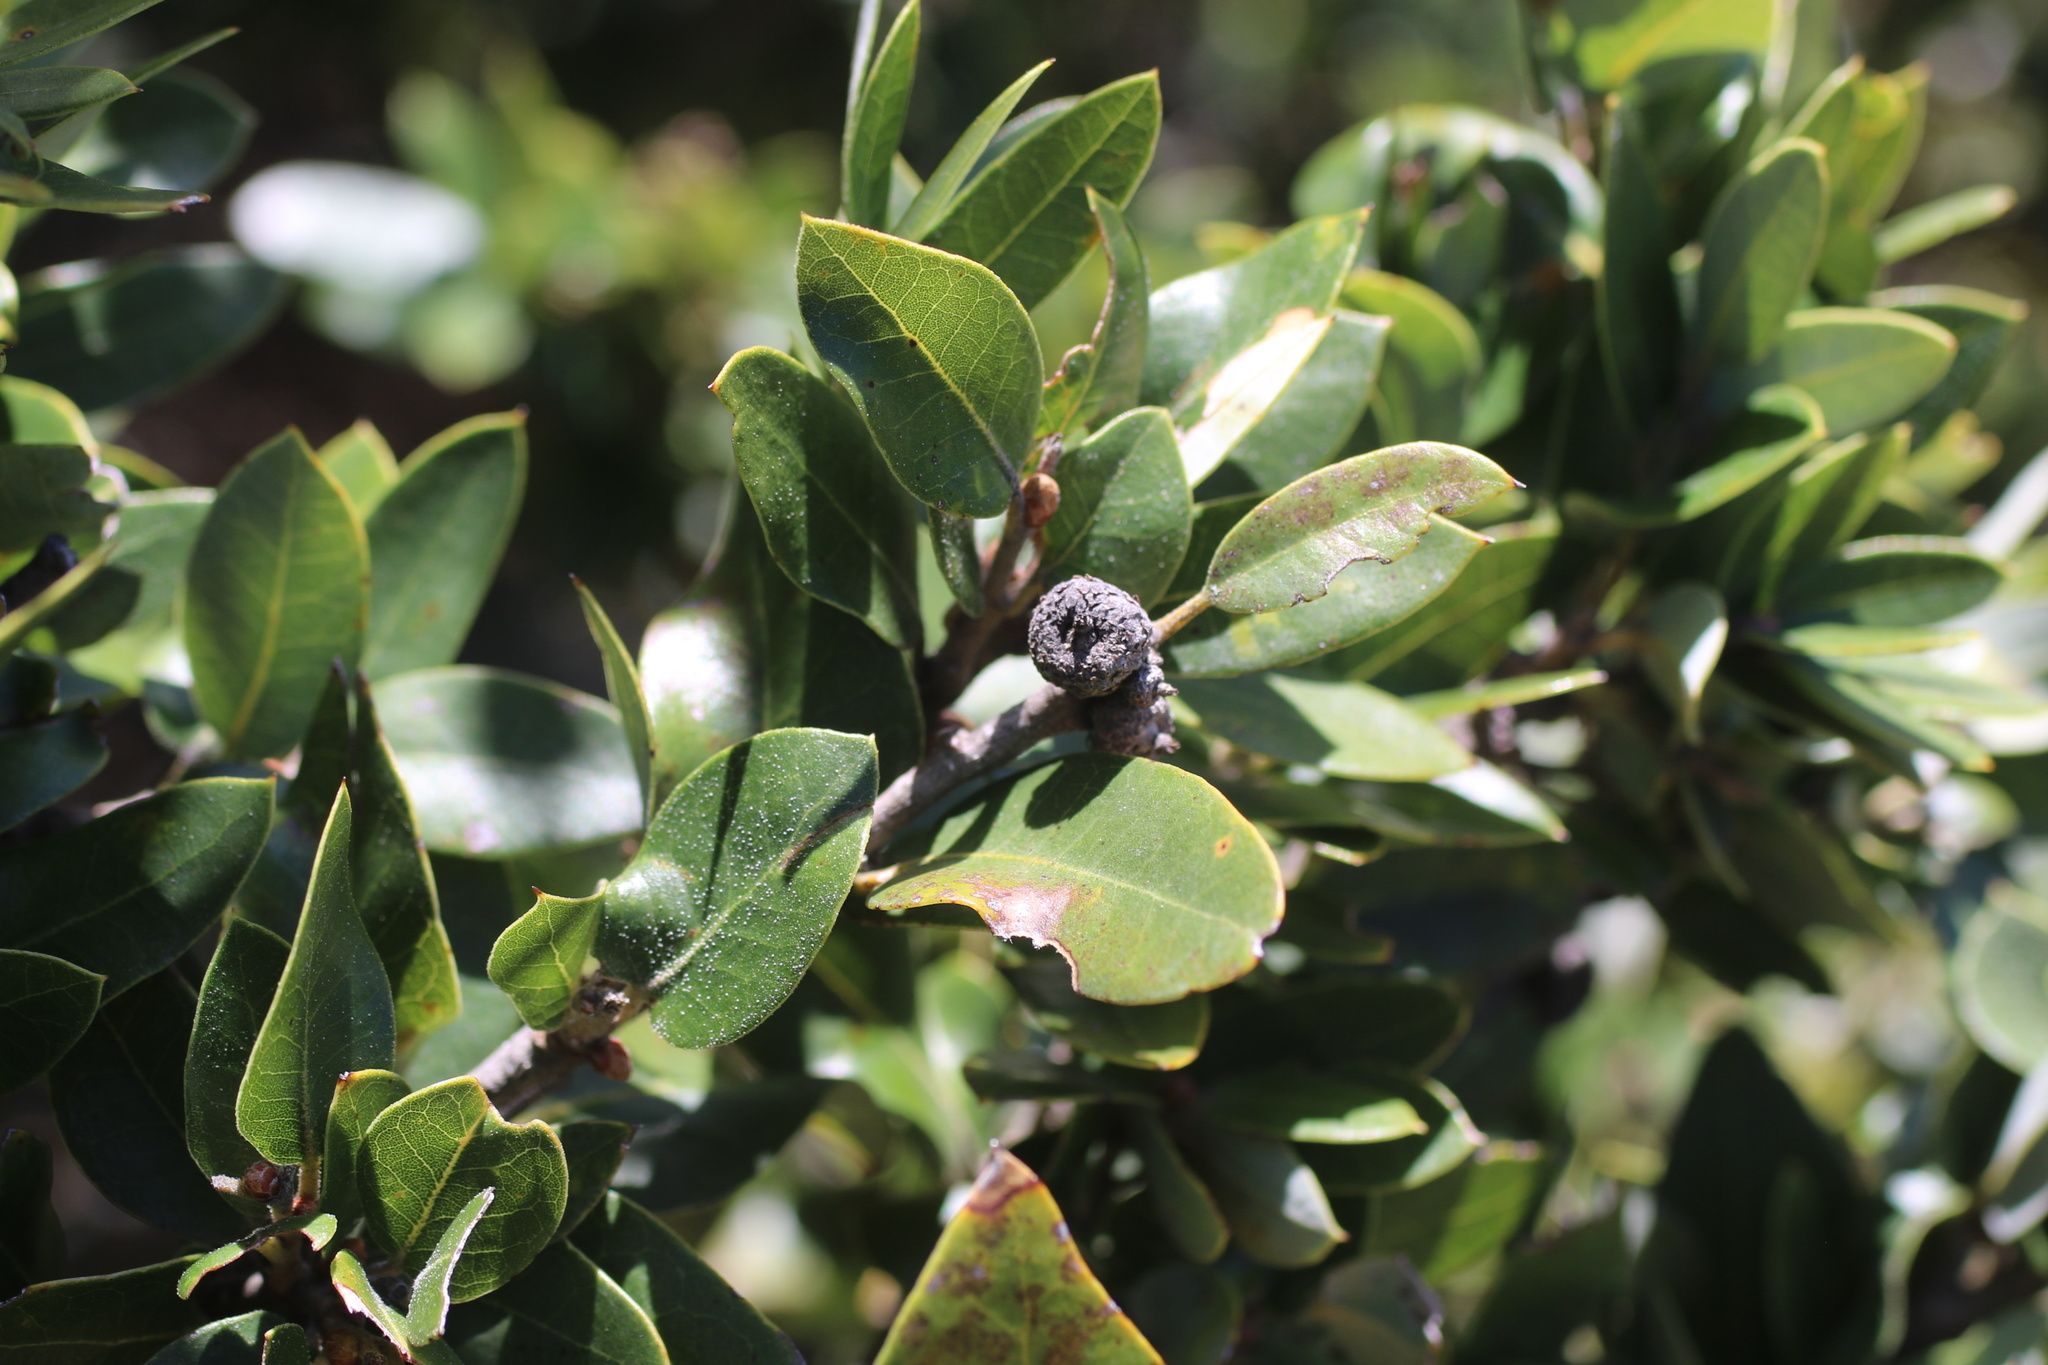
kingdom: Plantae
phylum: Tracheophyta
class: Magnoliopsida
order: Fagales
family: Fagaceae
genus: Quercus
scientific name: Quercus chrysolepis
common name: Canyon live oak
